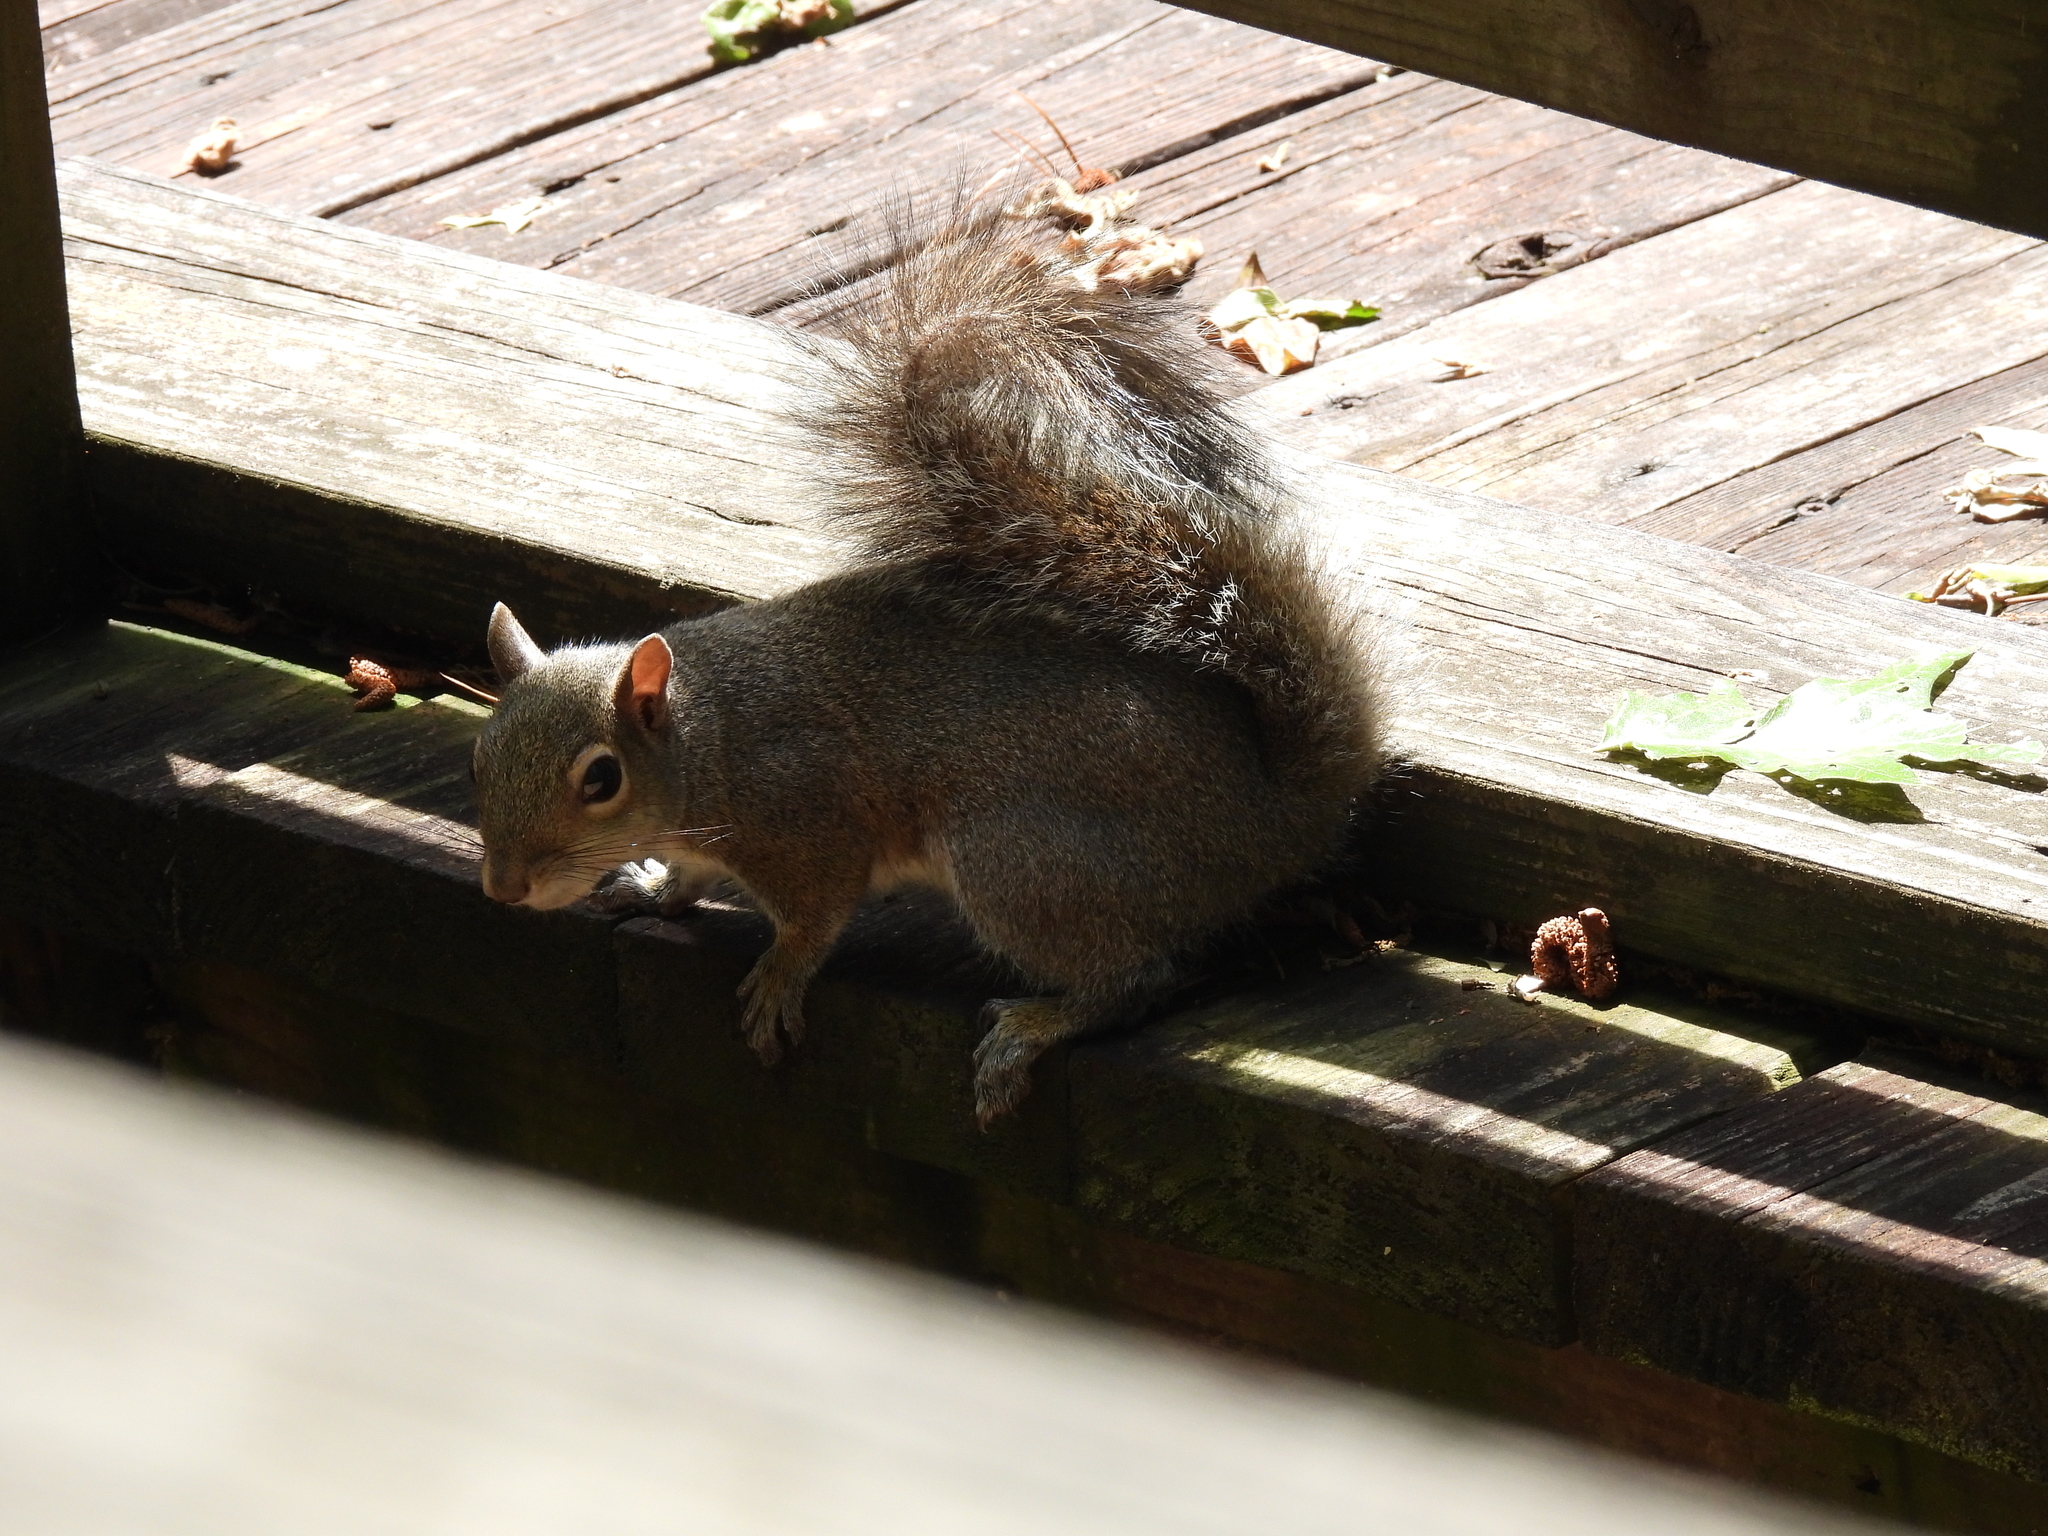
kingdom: Animalia
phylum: Chordata
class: Mammalia
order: Rodentia
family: Sciuridae
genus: Sciurus
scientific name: Sciurus carolinensis
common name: Eastern gray squirrel
